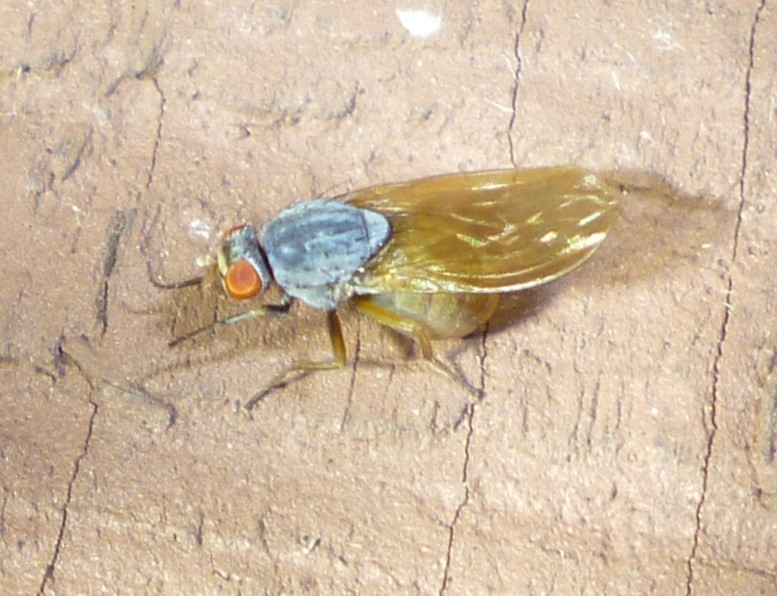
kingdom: Animalia
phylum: Arthropoda
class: Insecta
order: Diptera
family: Lauxaniidae
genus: Minettia
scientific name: Minettia lupulina
